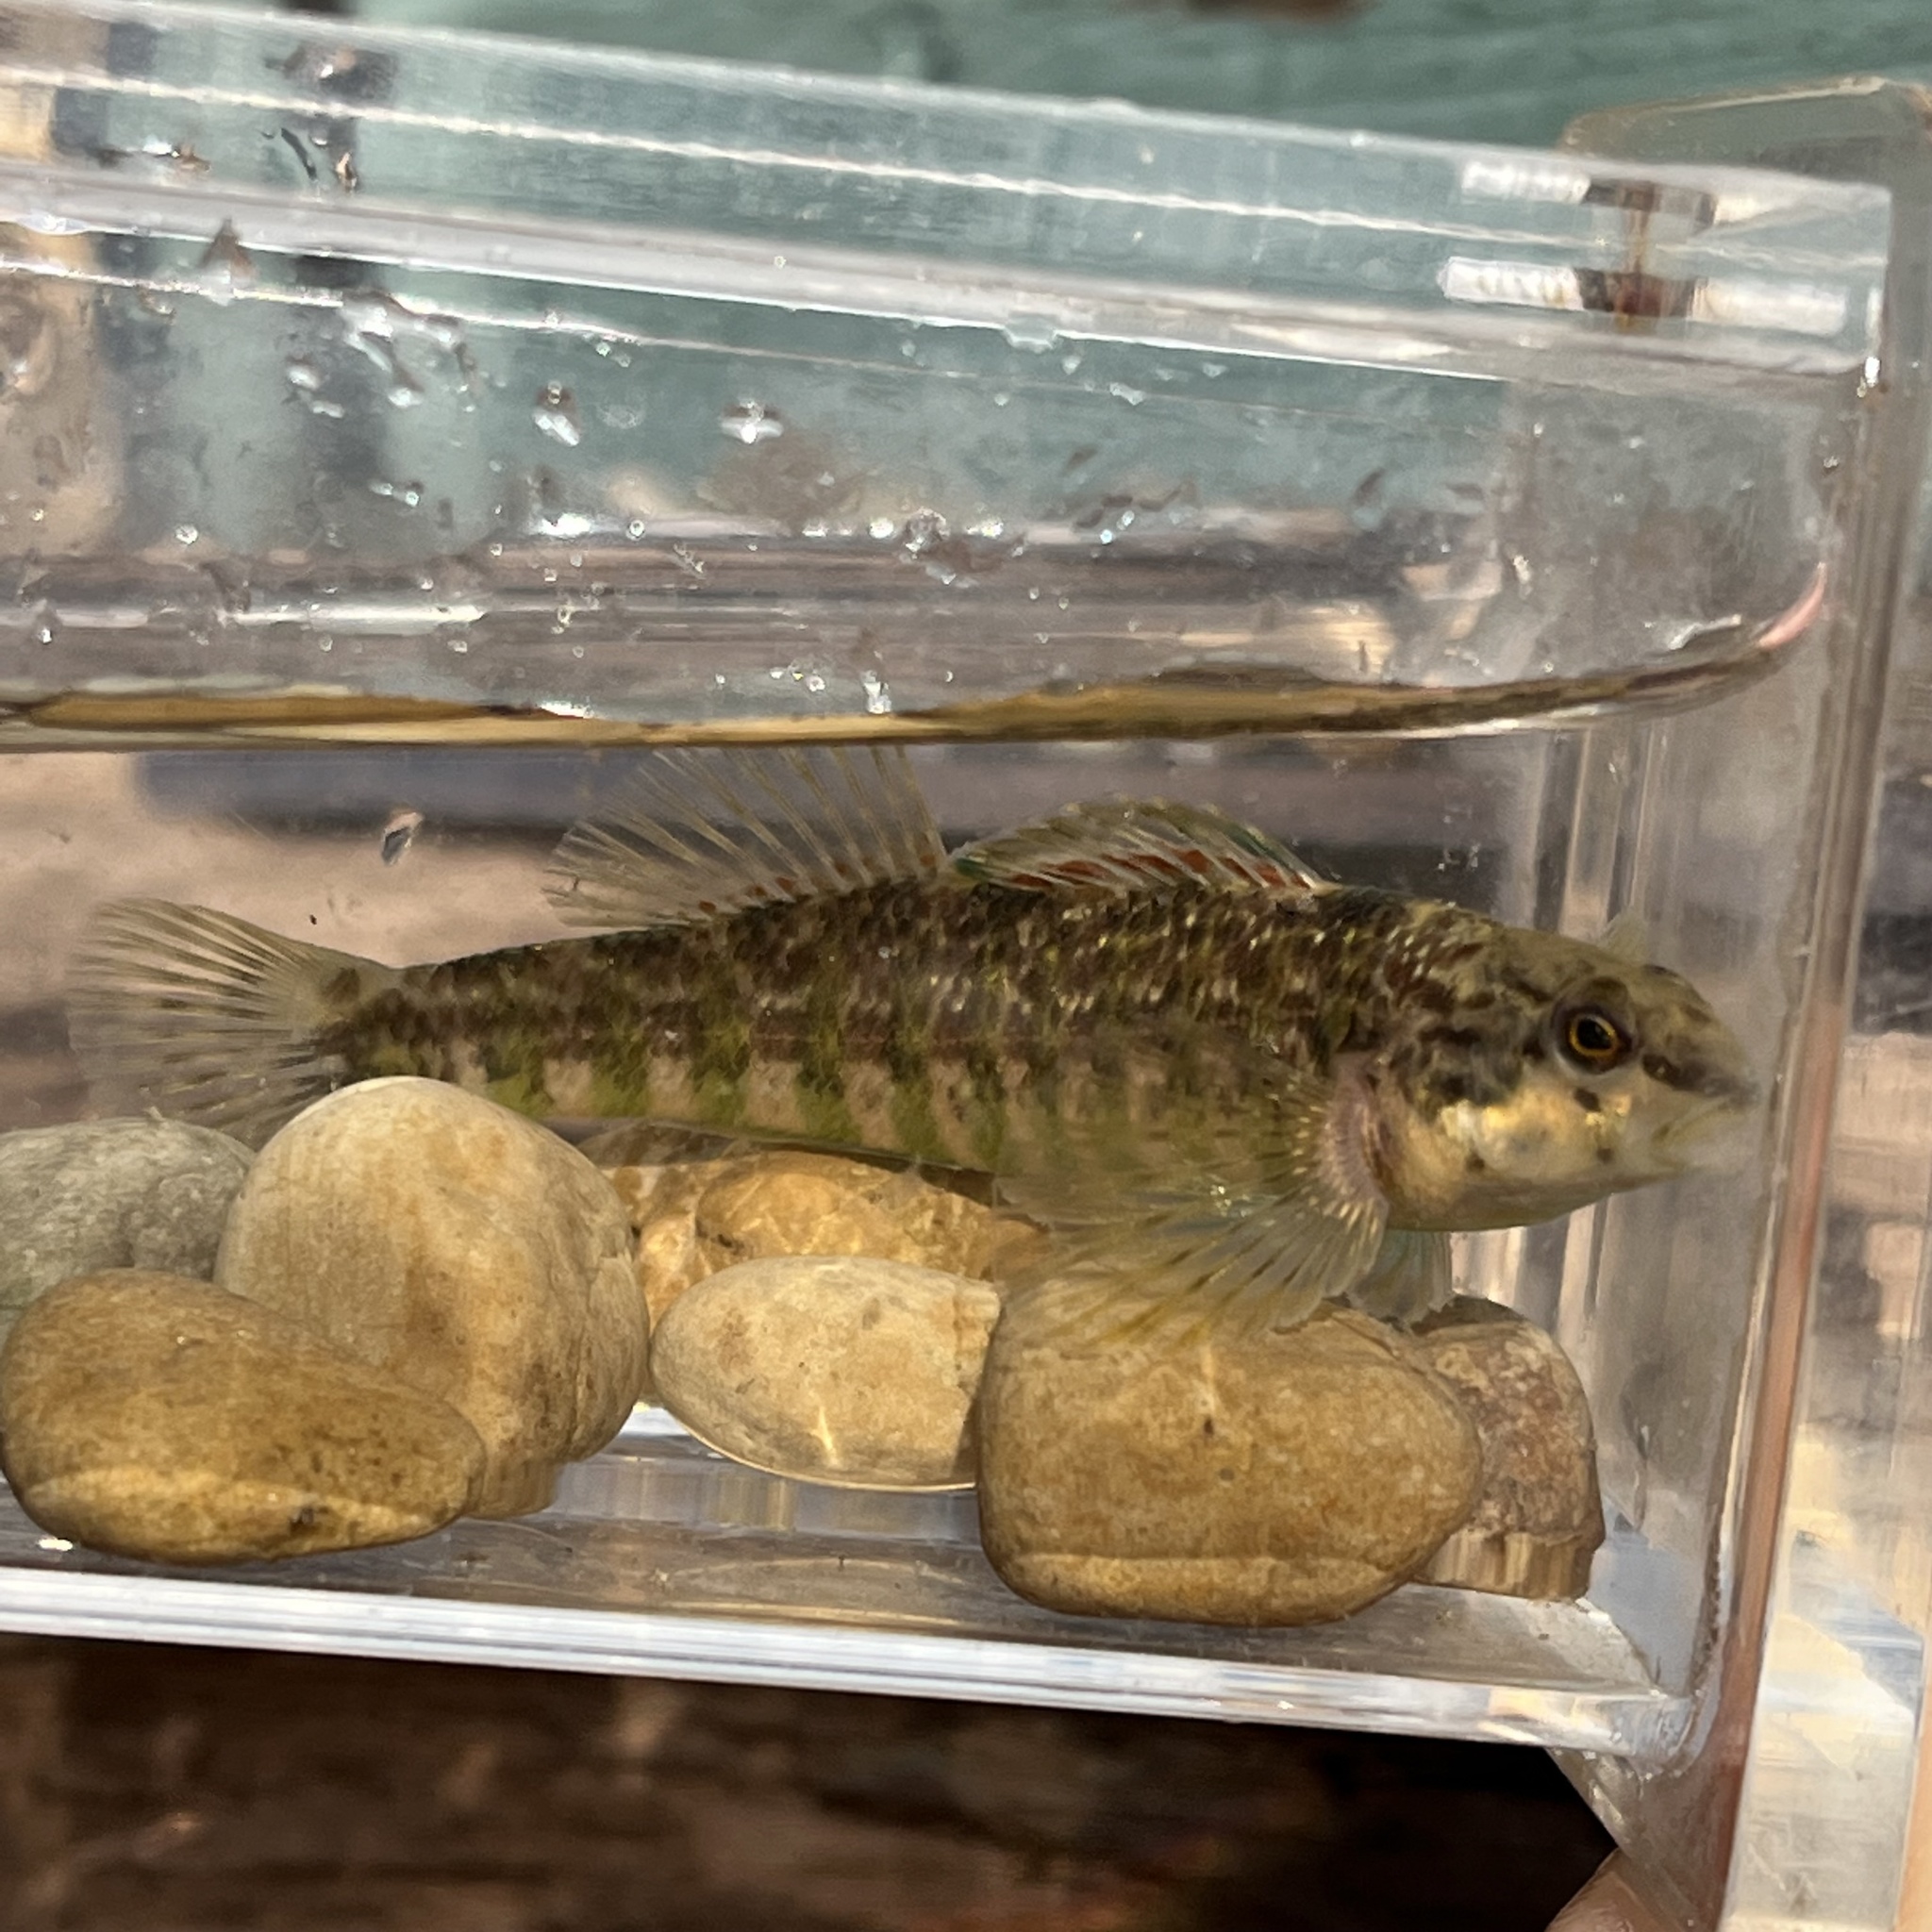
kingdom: Animalia
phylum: Chordata
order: Perciformes
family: Percidae
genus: Etheostoma
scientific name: Etheostoma zonale
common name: Banded darter
